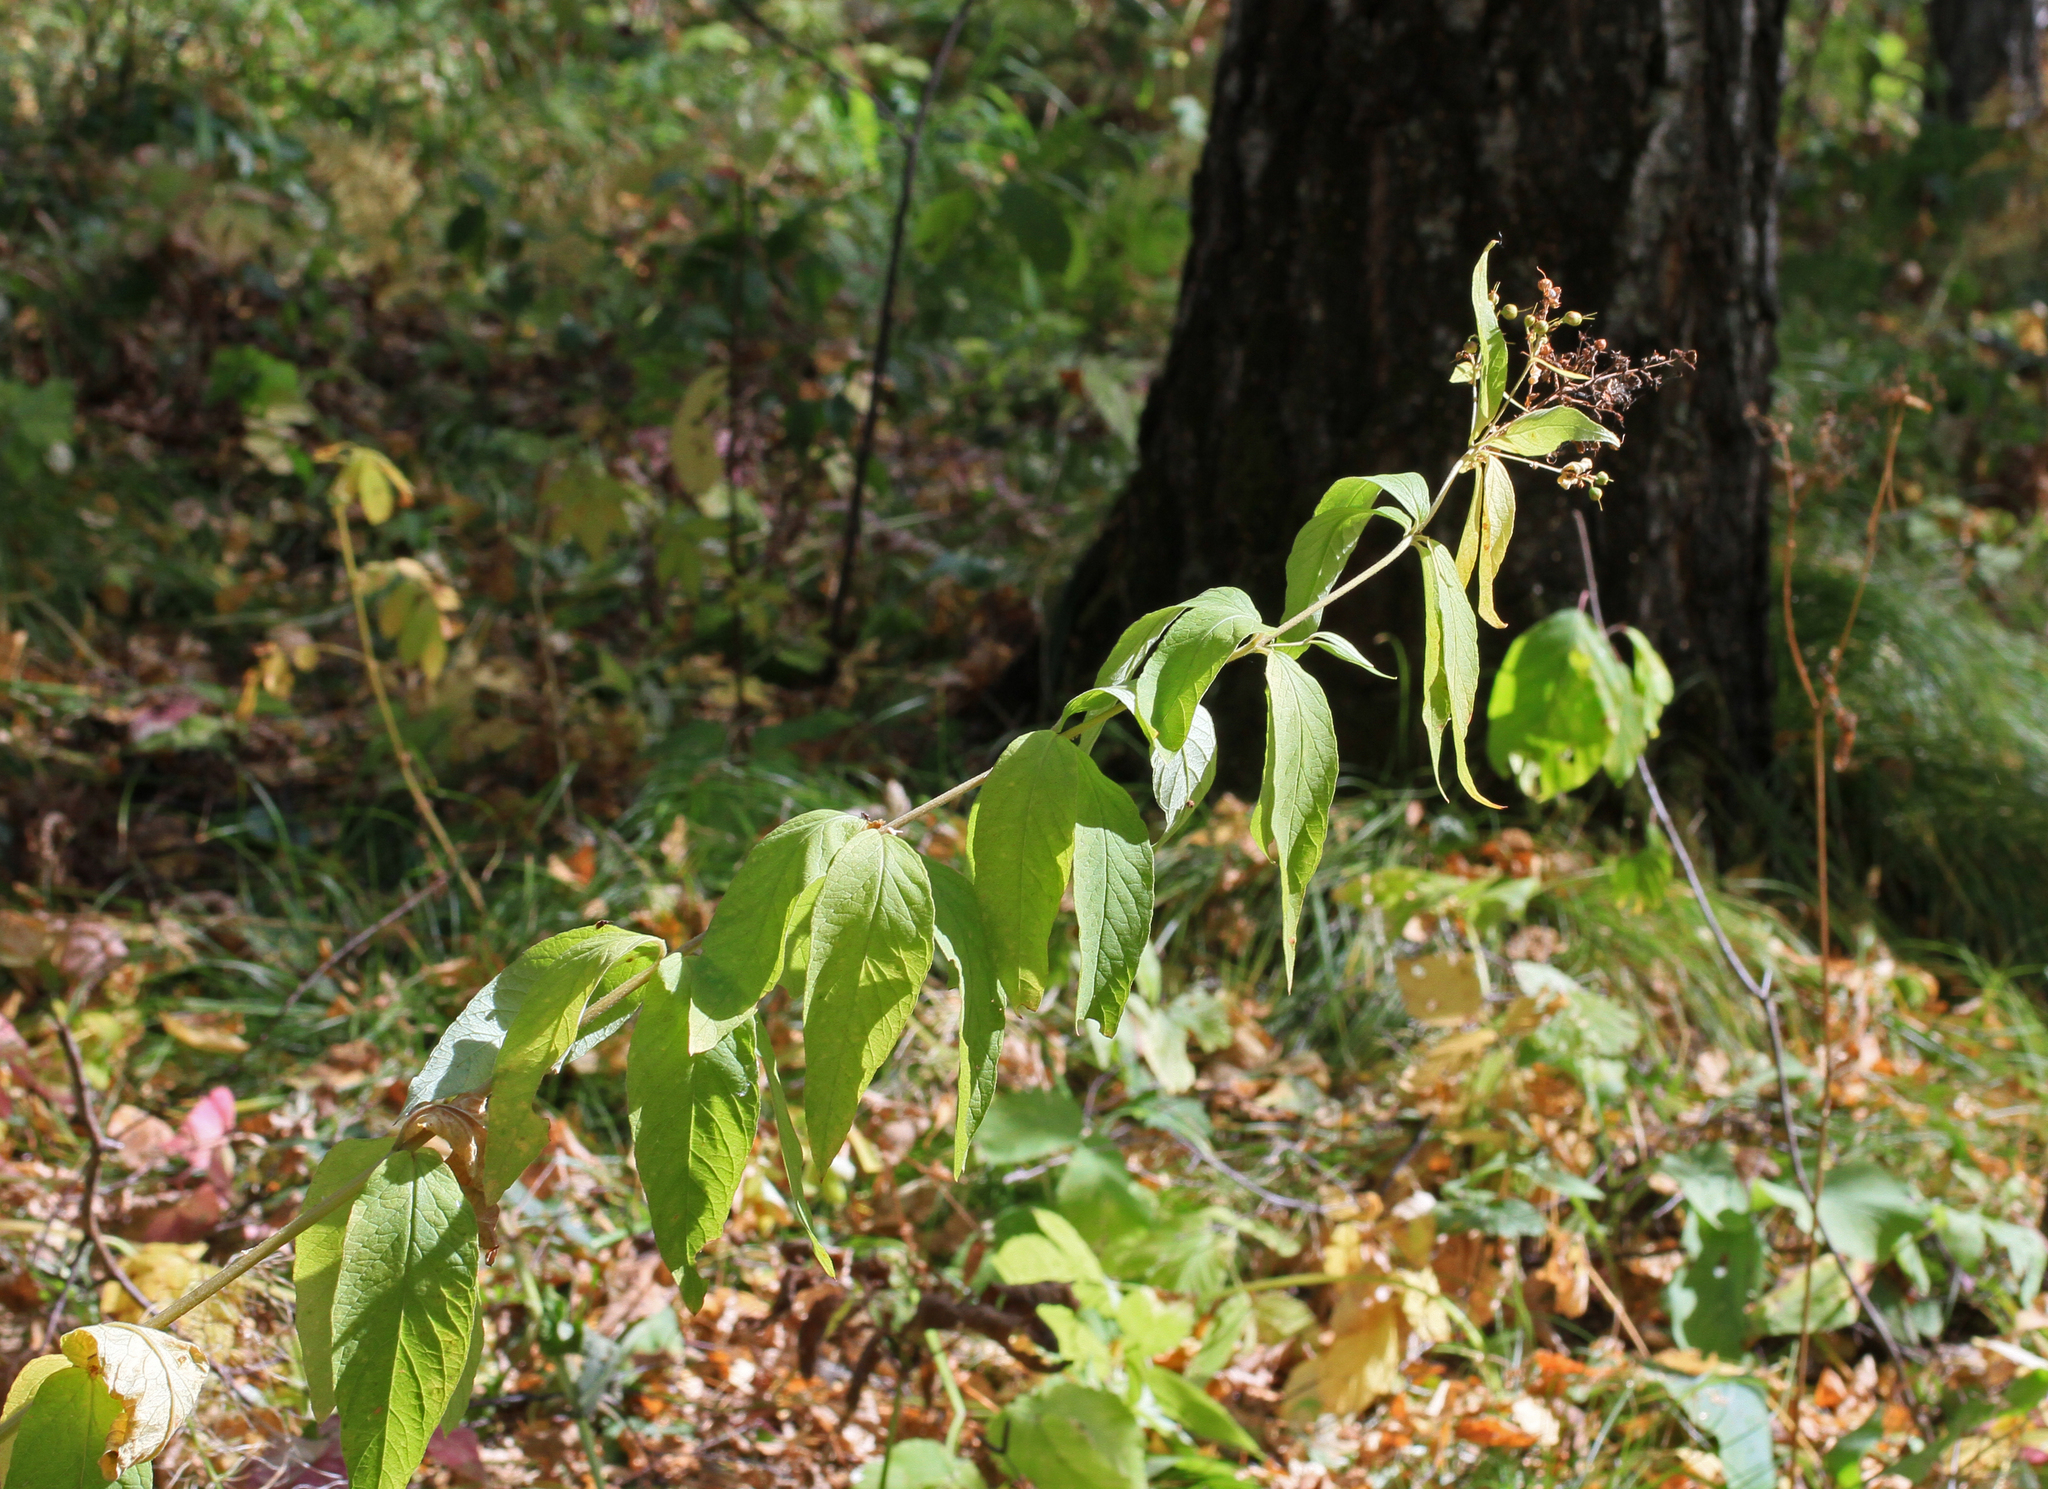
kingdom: Plantae
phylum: Tracheophyta
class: Magnoliopsida
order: Ericales
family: Primulaceae
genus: Lysimachia
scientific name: Lysimachia vulgaris
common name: Yellow loosestrife
